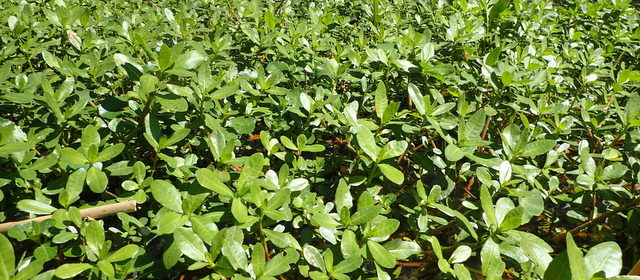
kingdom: Plantae
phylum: Tracheophyta
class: Magnoliopsida
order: Caryophyllales
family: Amaranthaceae
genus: Alternanthera
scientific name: Alternanthera philoxeroides
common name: Alligatorweed
